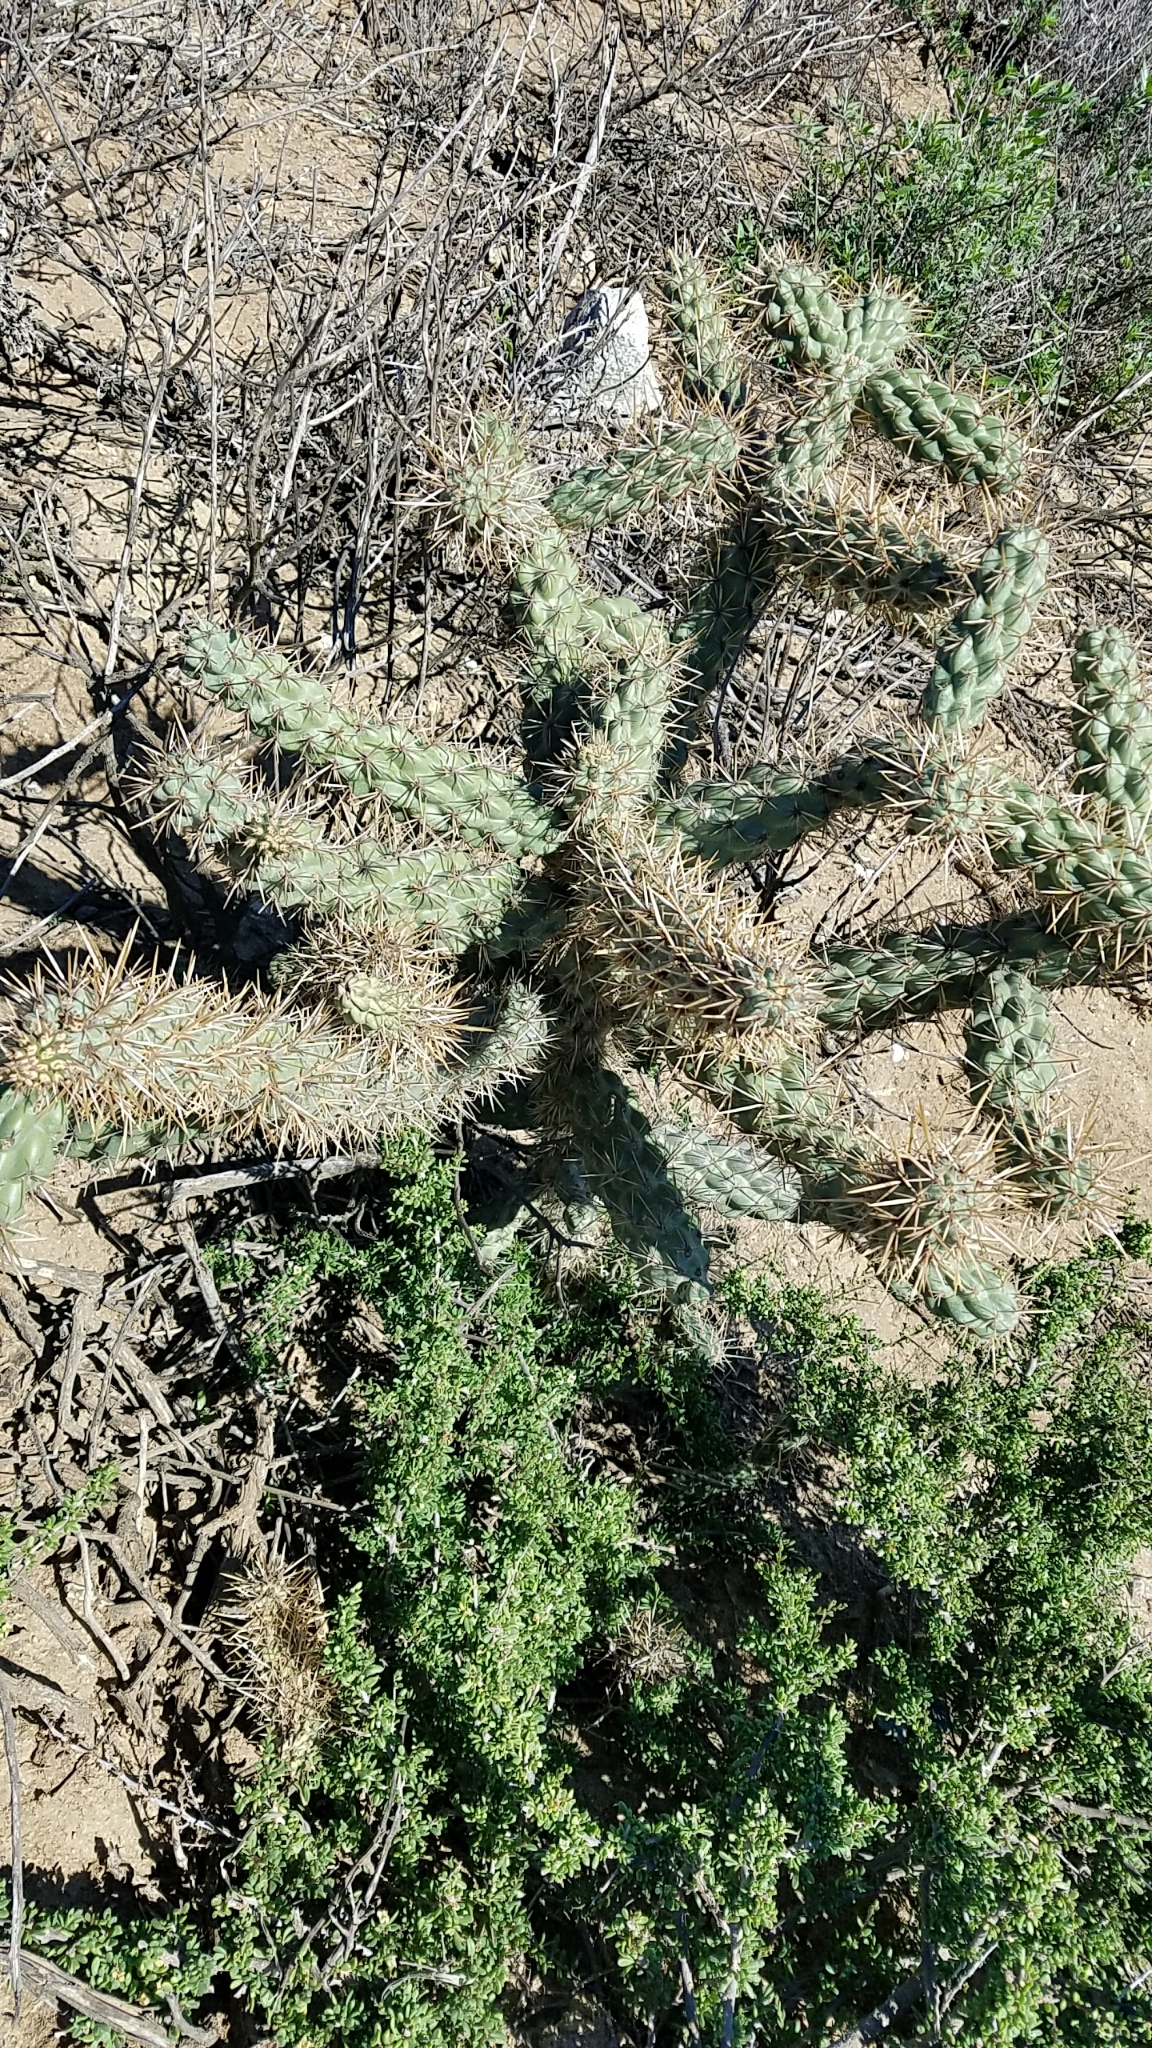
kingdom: Plantae
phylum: Tracheophyta
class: Magnoliopsida
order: Caryophyllales
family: Cactaceae
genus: Cylindropuntia
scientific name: Cylindropuntia prolifera
